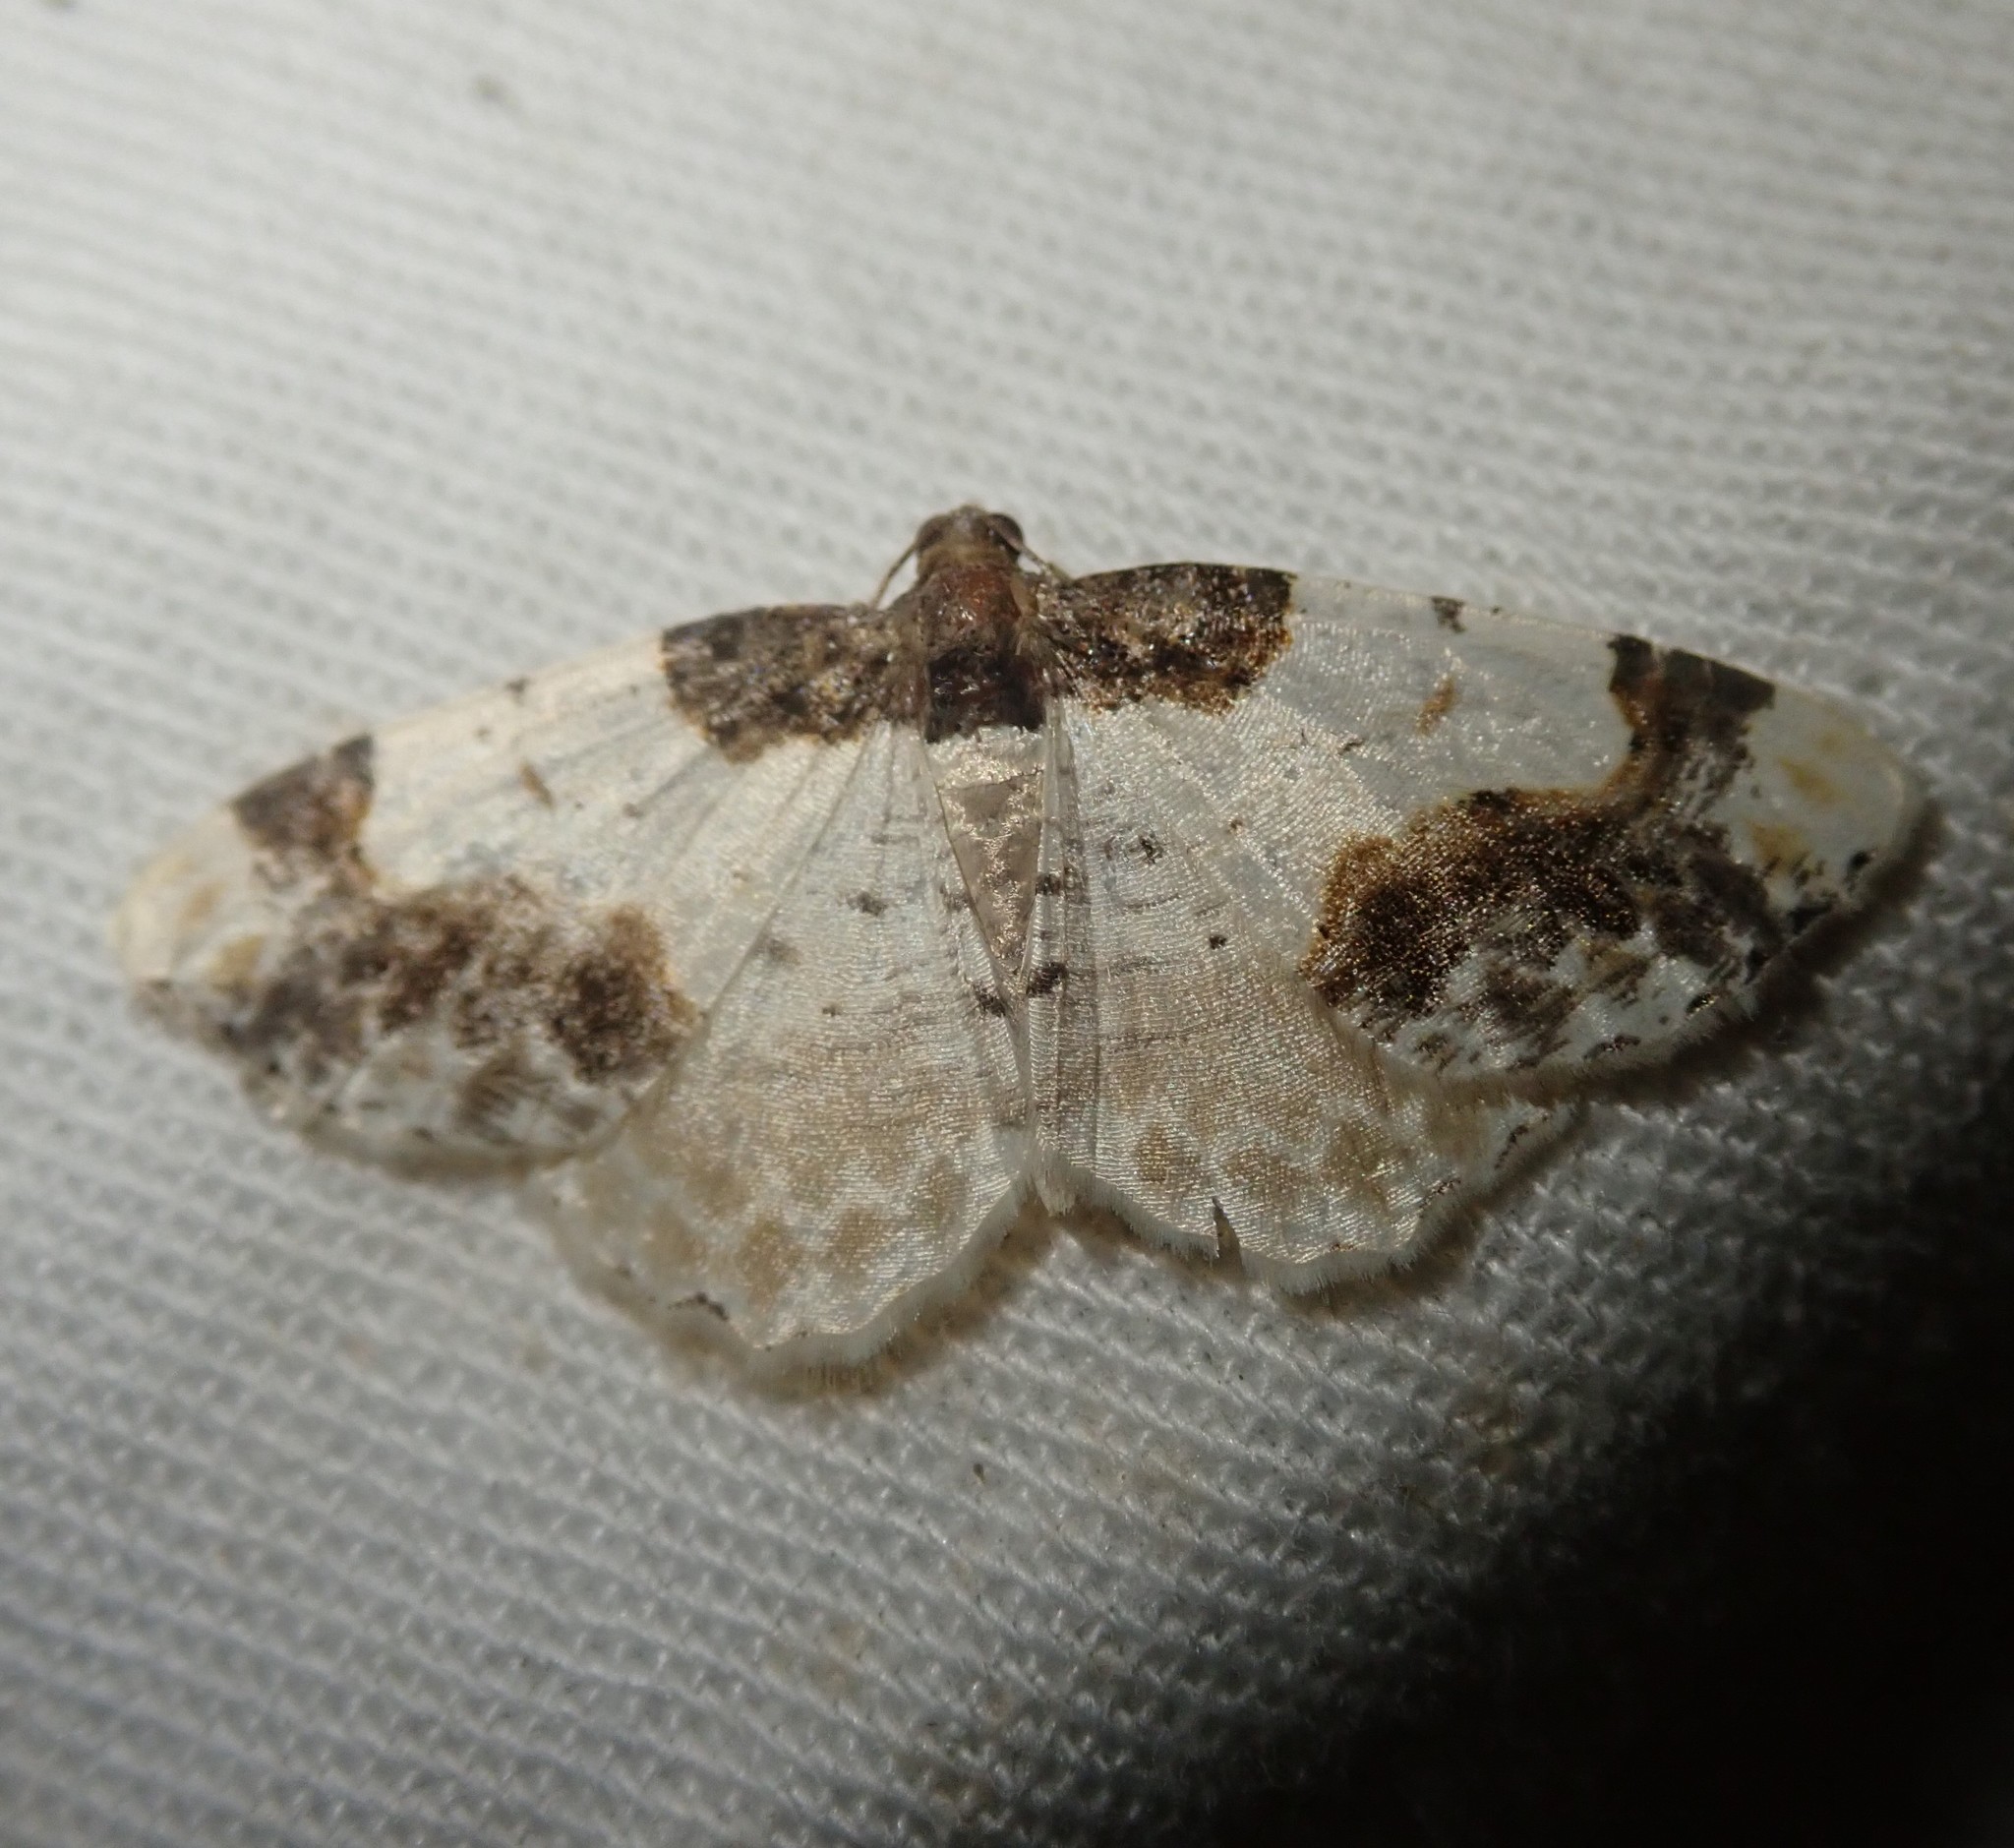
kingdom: Animalia
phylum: Arthropoda
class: Insecta
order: Lepidoptera
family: Geometridae
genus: Ligdia
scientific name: Ligdia adustata
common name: Scorched carpet
